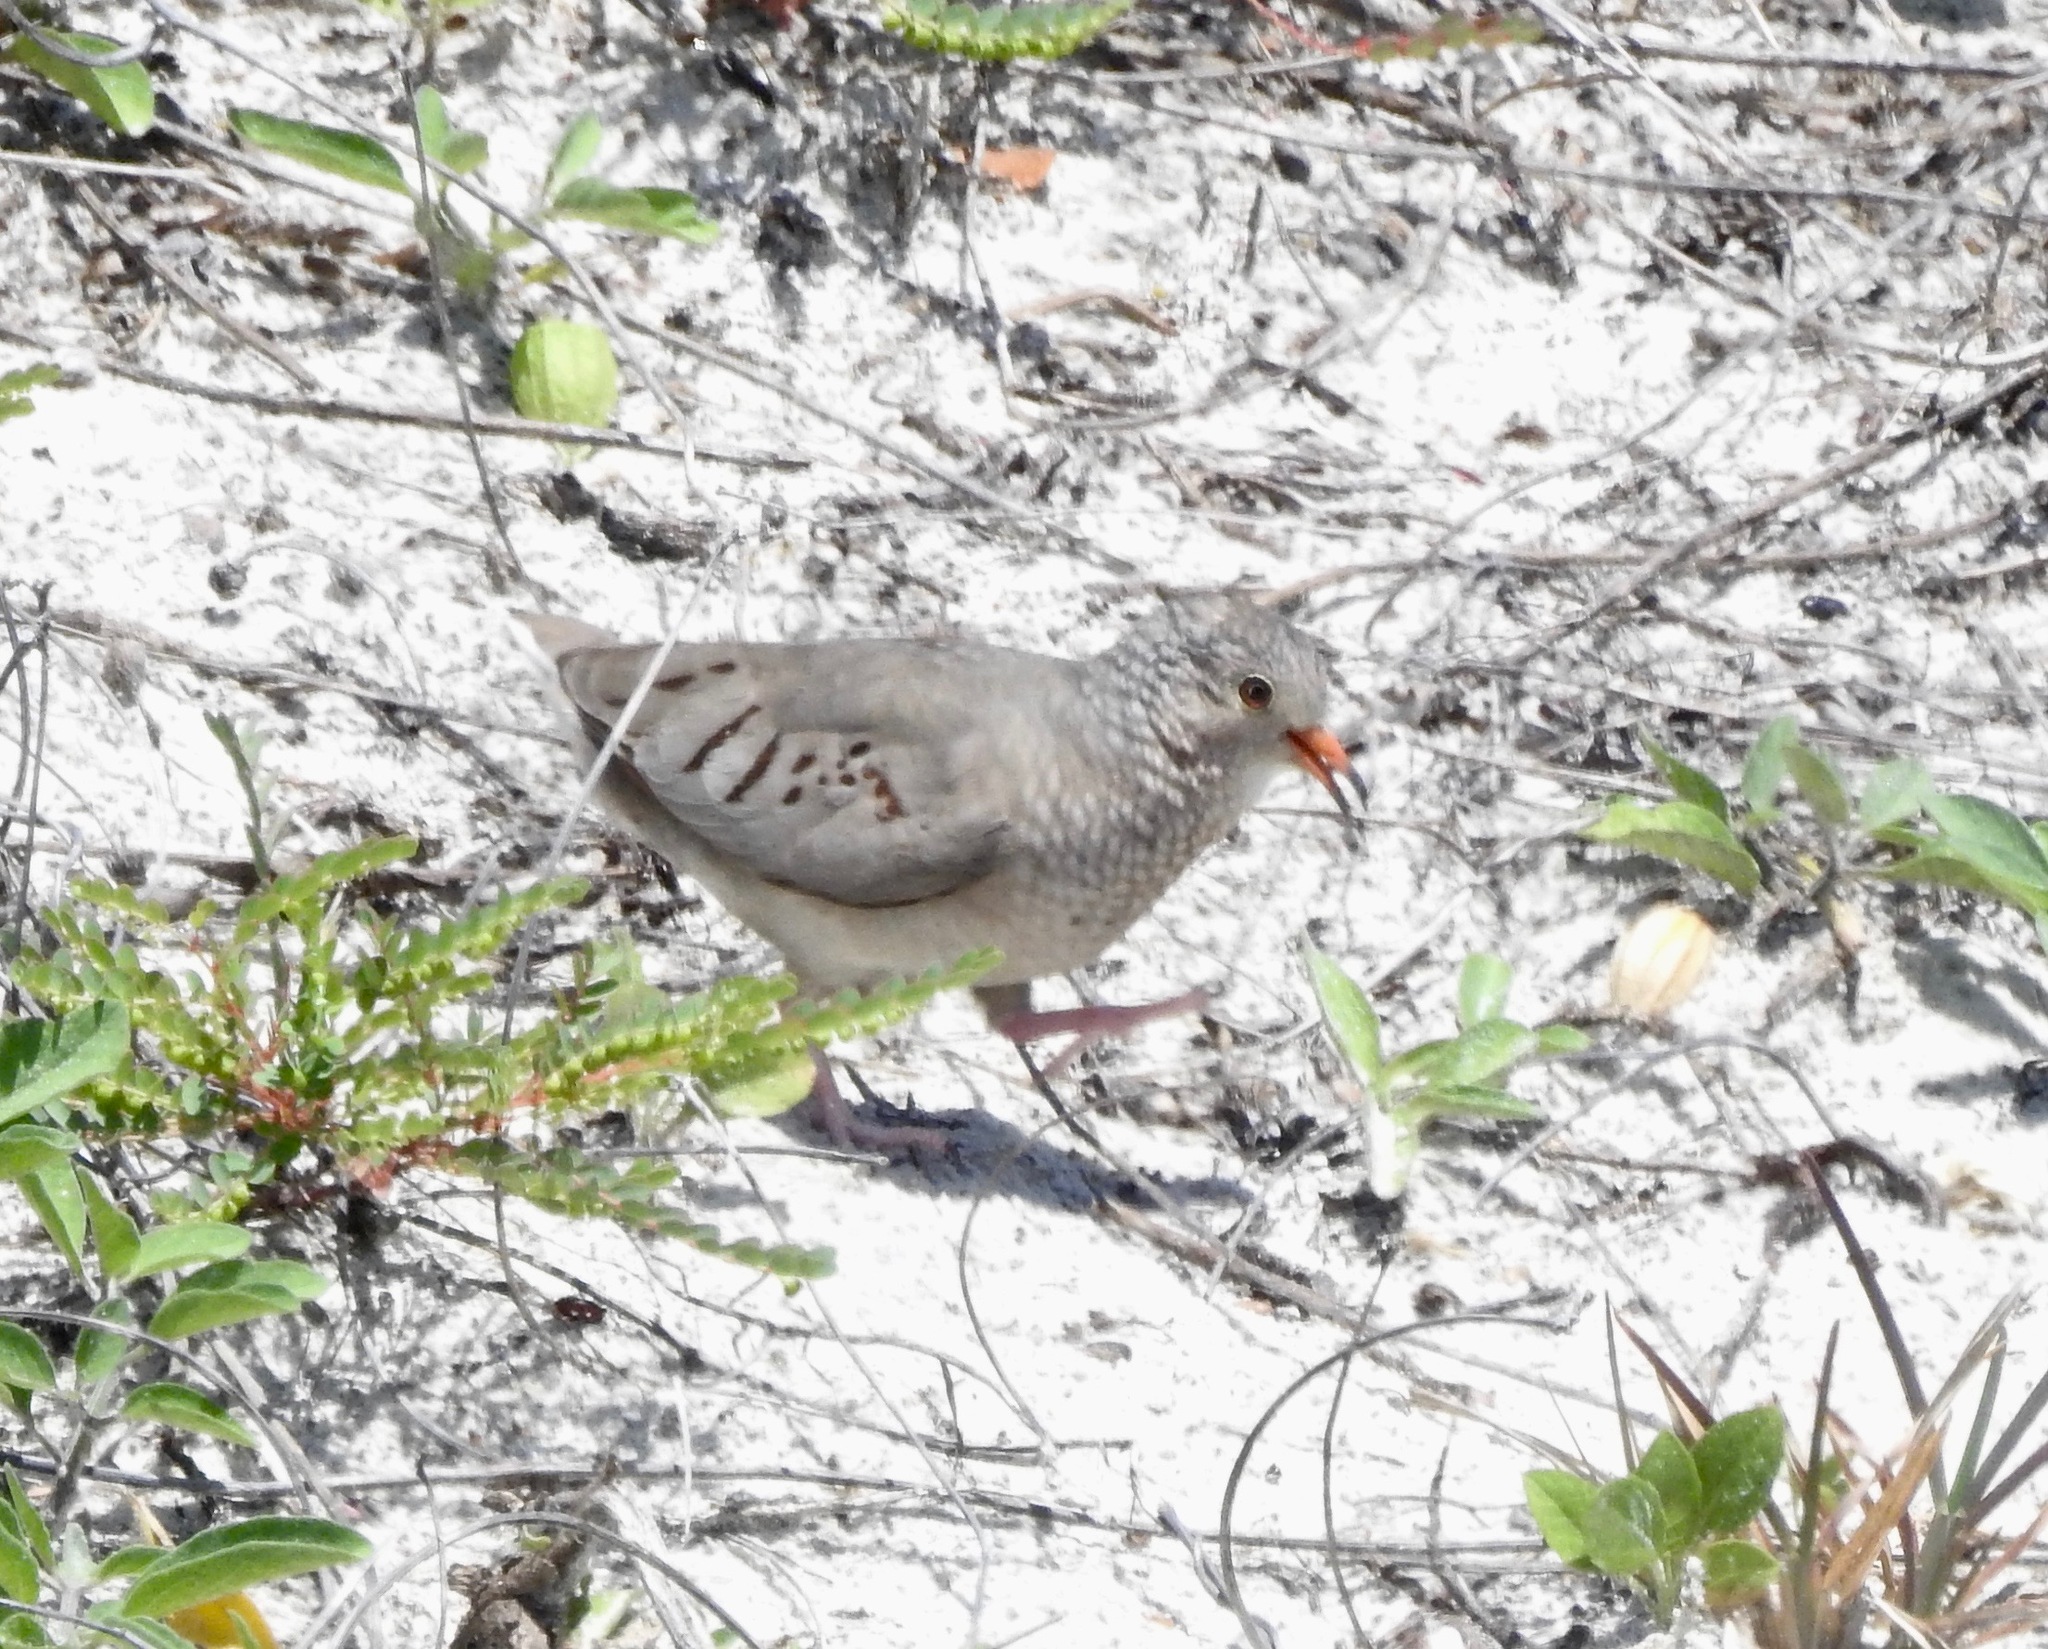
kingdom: Animalia
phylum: Chordata
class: Aves
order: Columbiformes
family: Columbidae
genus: Columbina
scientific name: Columbina passerina
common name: Common ground-dove
